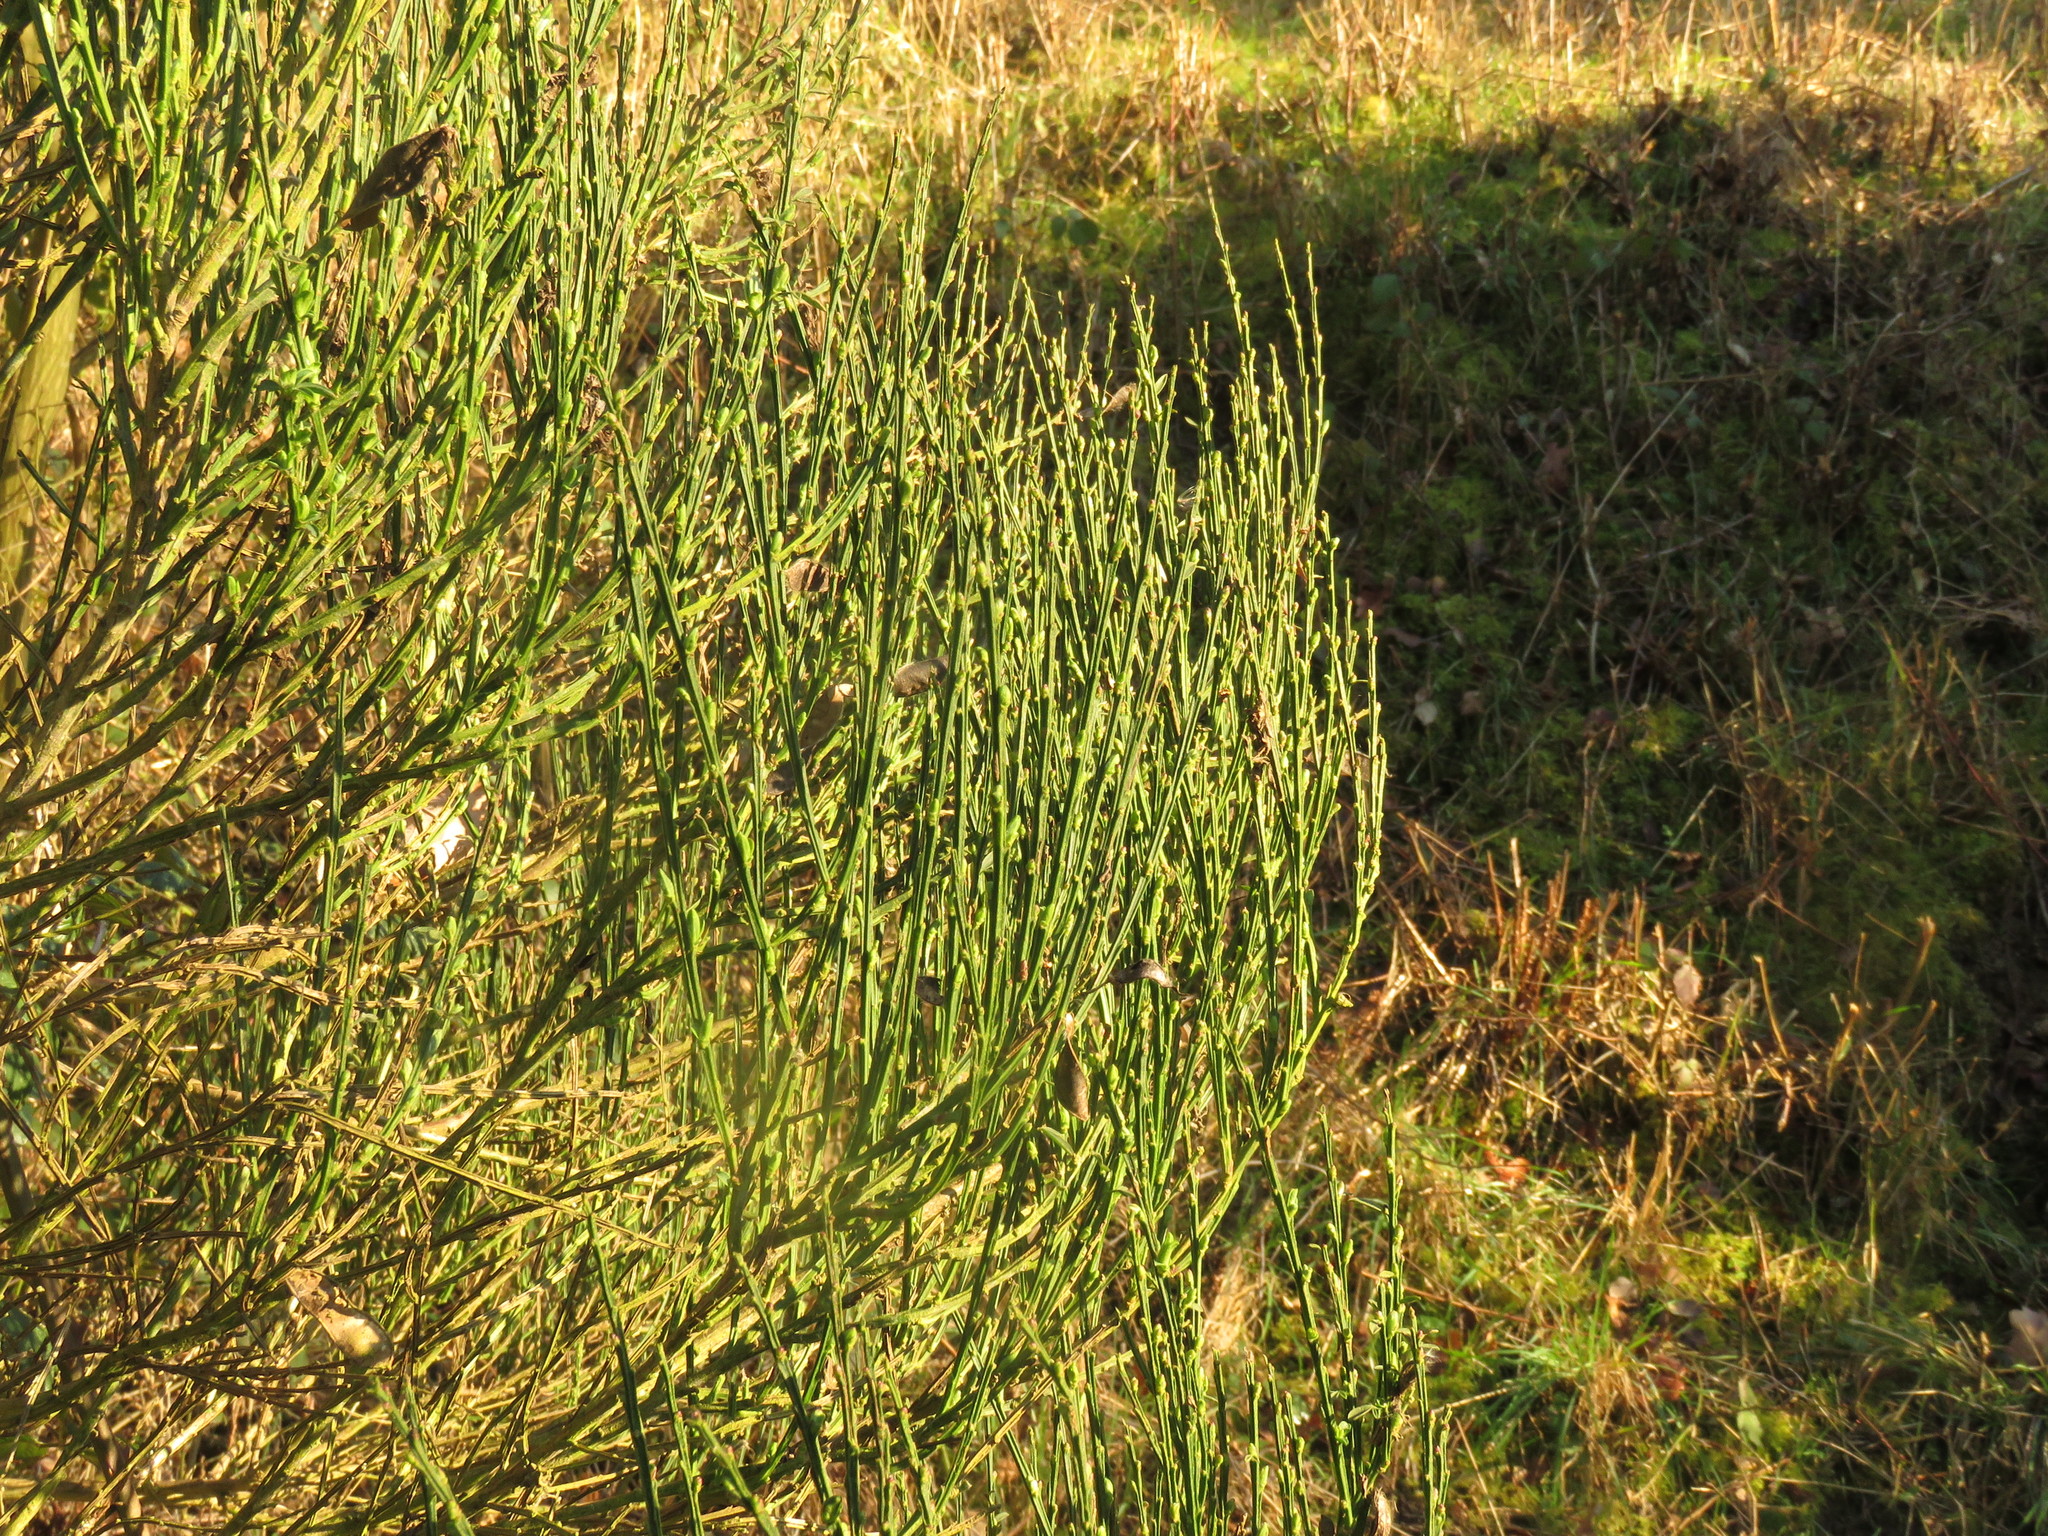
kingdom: Plantae
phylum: Tracheophyta
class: Magnoliopsida
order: Fabales
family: Fabaceae
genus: Cytisus
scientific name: Cytisus scoparius
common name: Scotch broom
